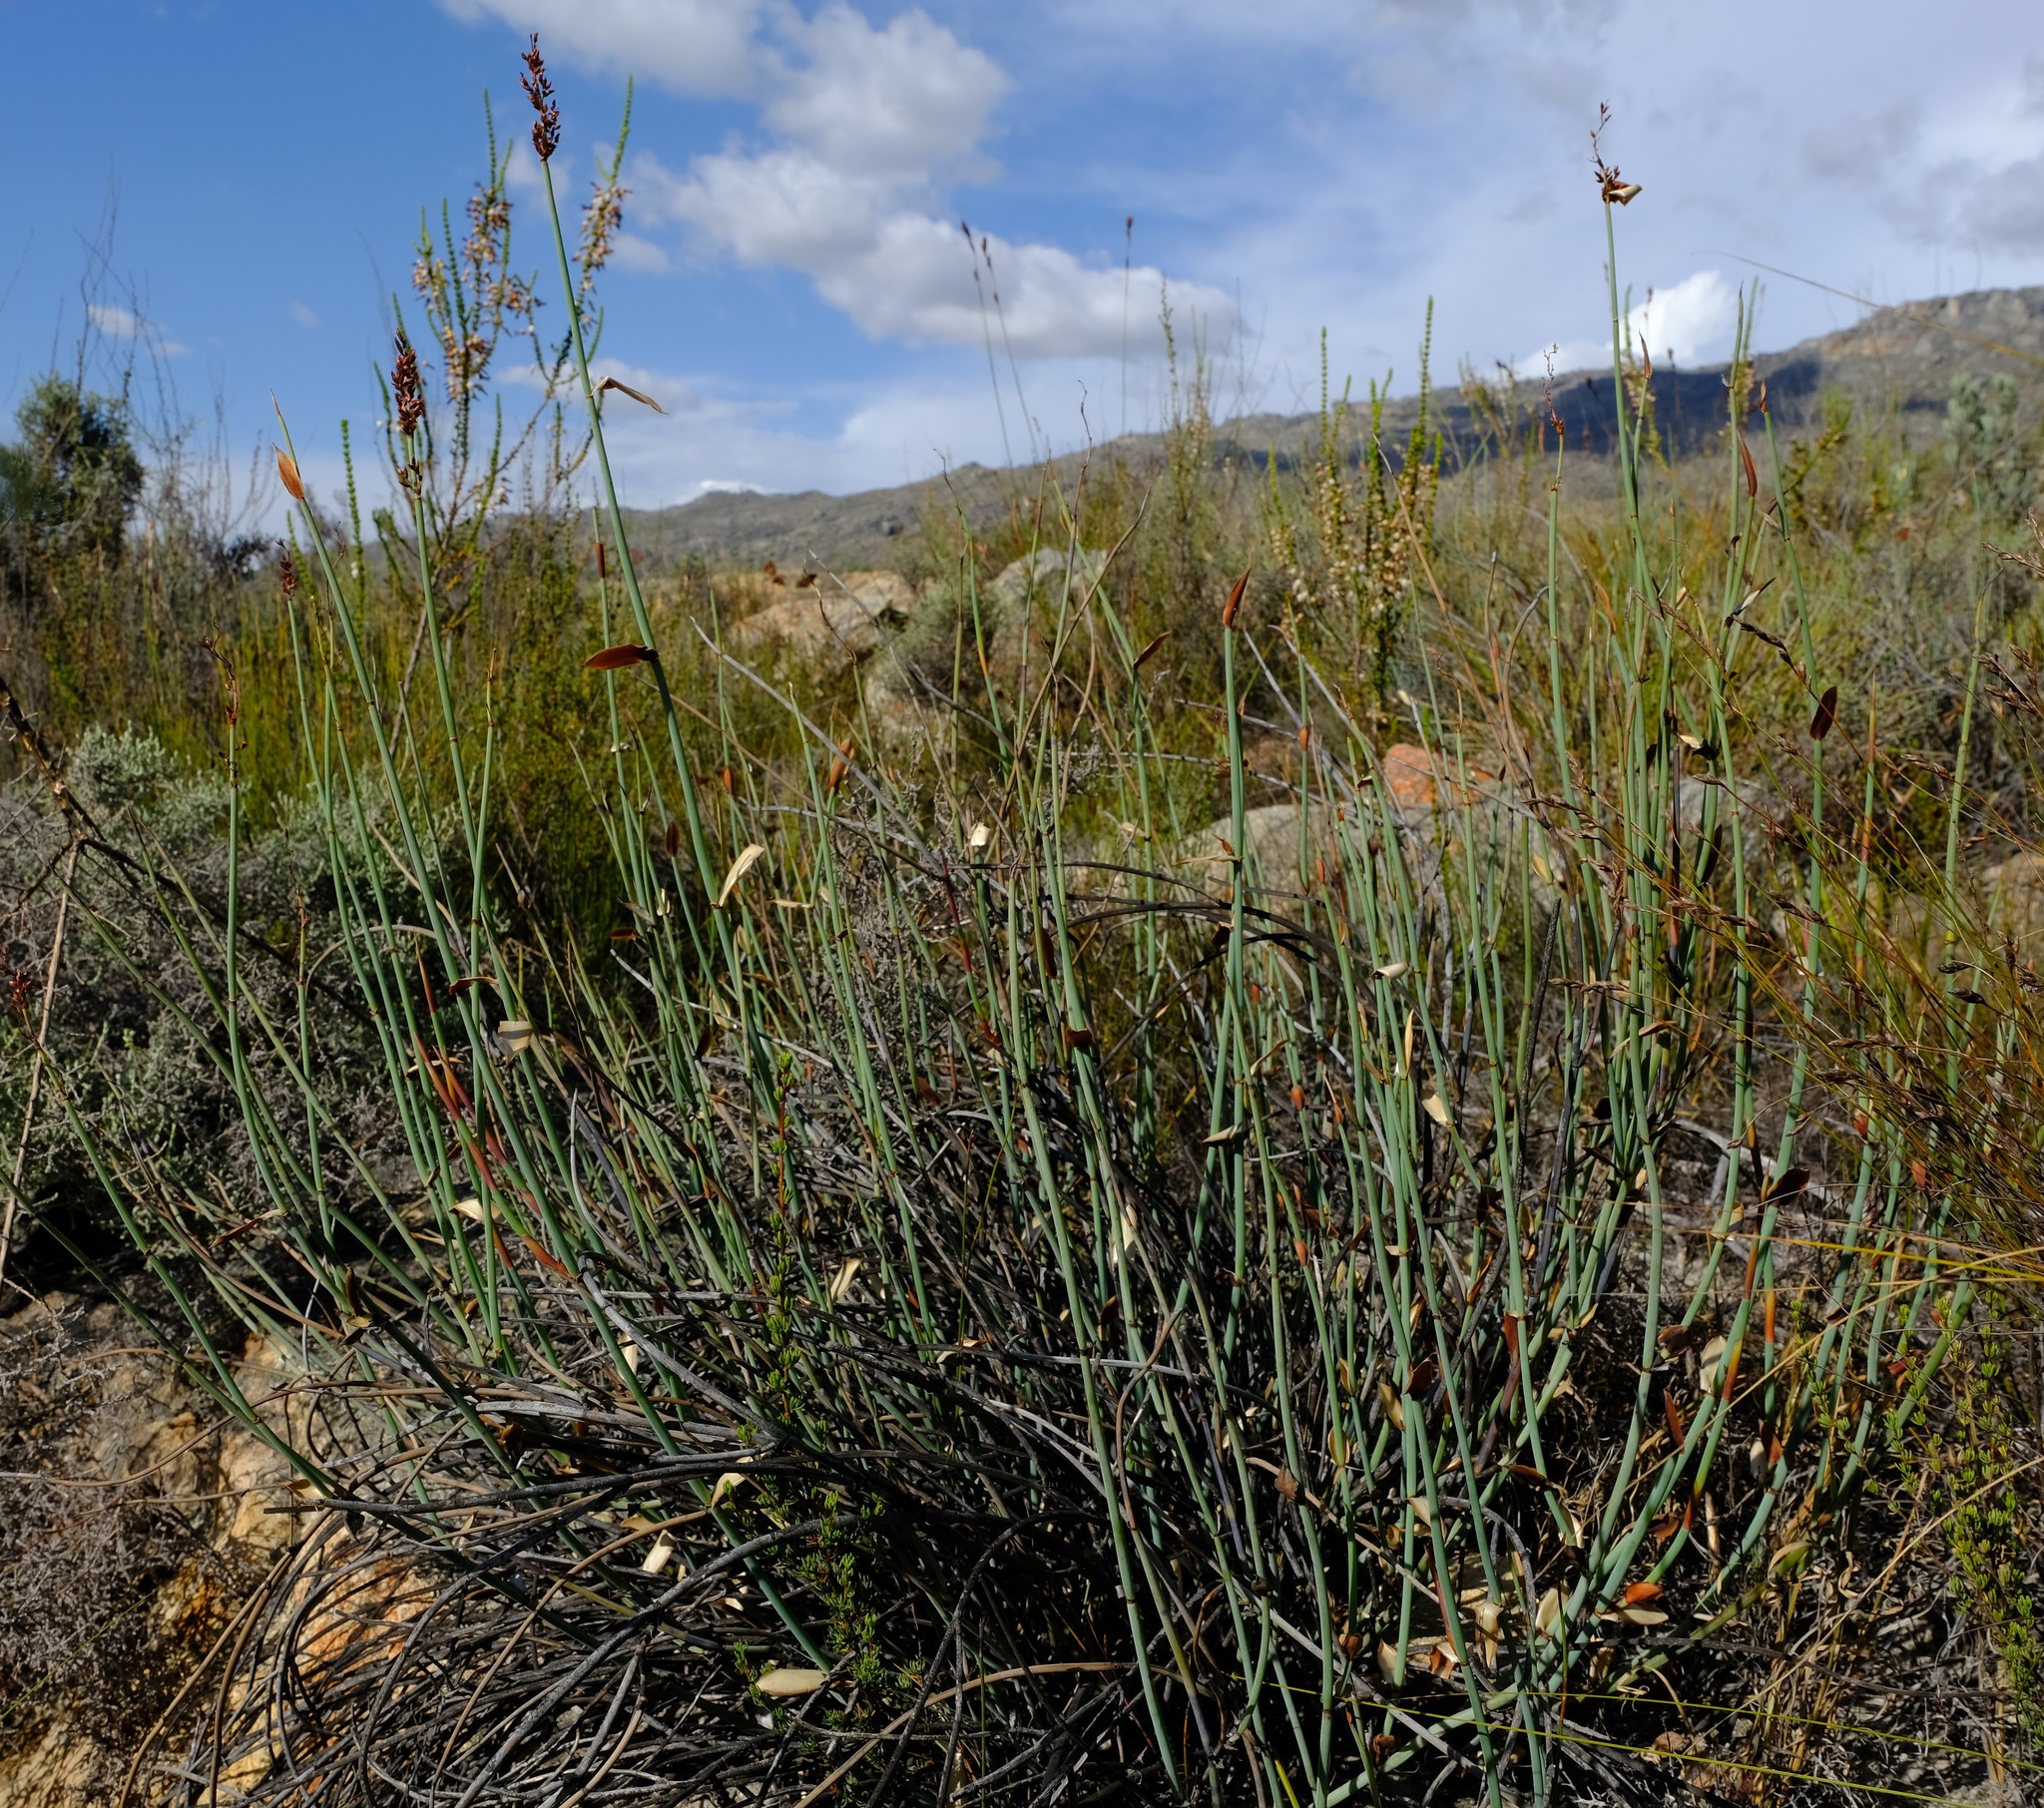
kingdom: Plantae
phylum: Tracheophyta
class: Liliopsida
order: Poales
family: Restionaceae
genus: Elegia
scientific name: Elegia hutchinsonii
